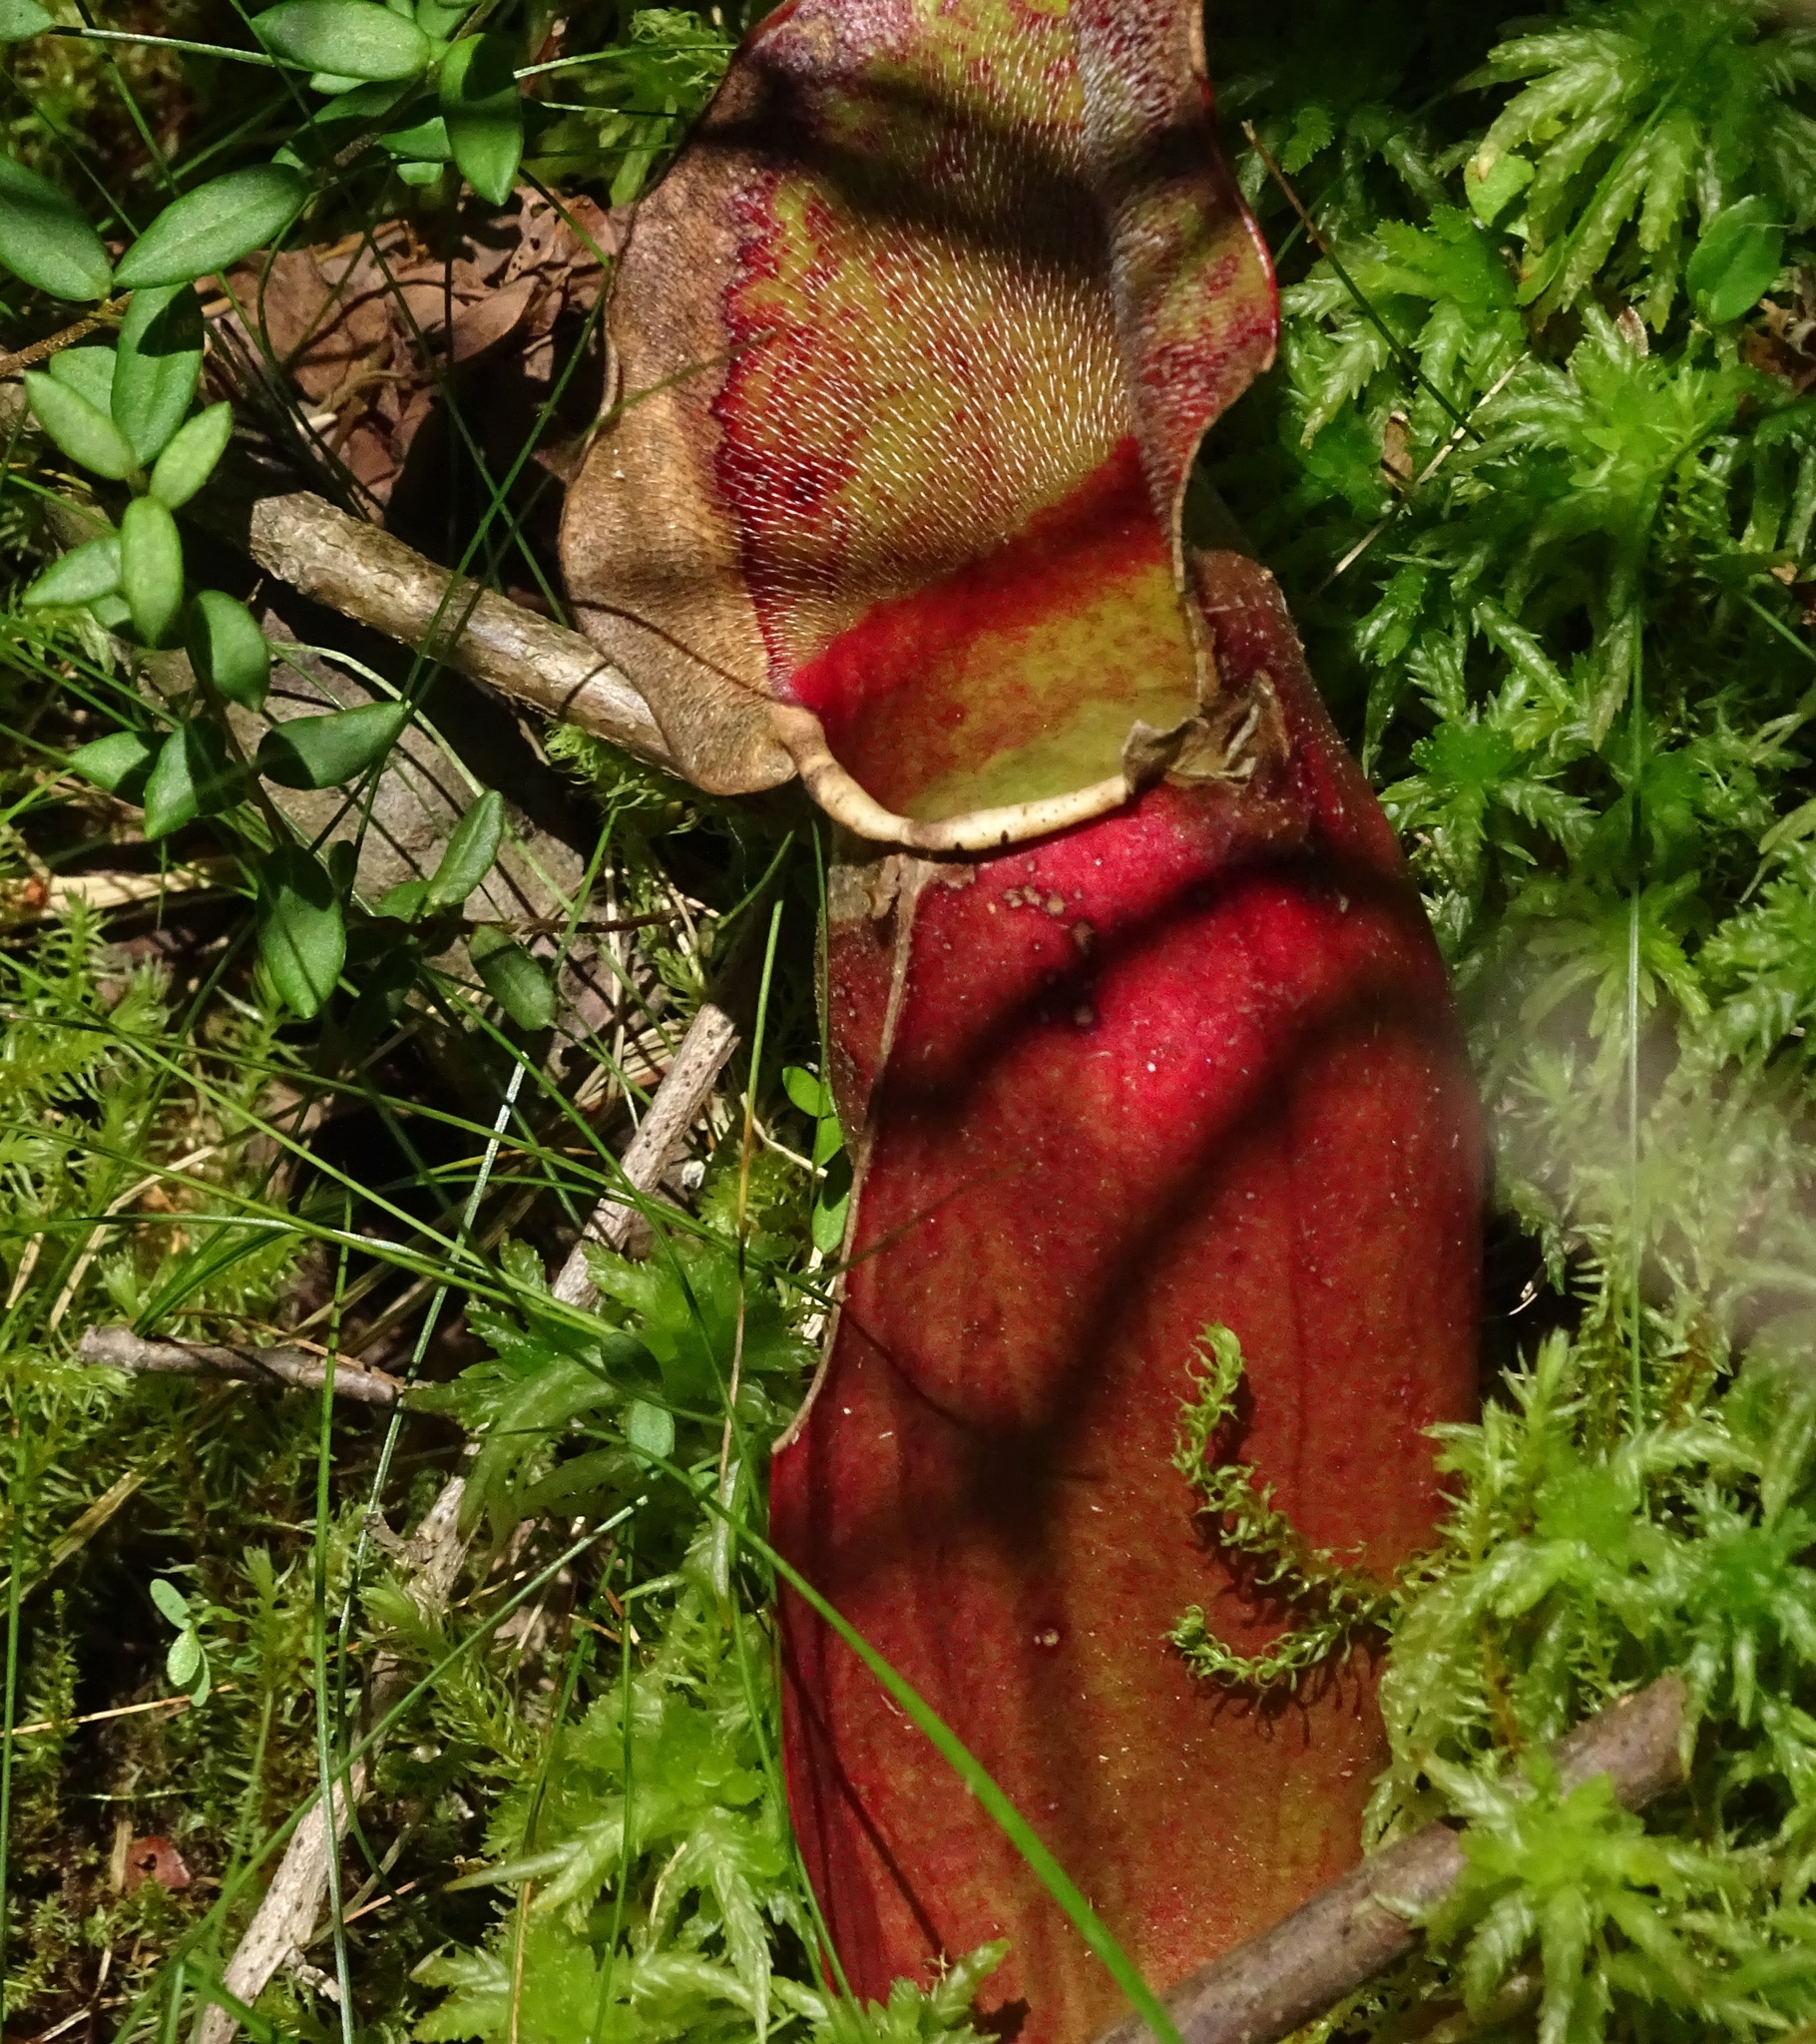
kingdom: Plantae
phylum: Tracheophyta
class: Magnoliopsida
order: Ericales
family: Sarraceniaceae
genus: Sarracenia
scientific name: Sarracenia purpurea
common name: Pitcherplant
